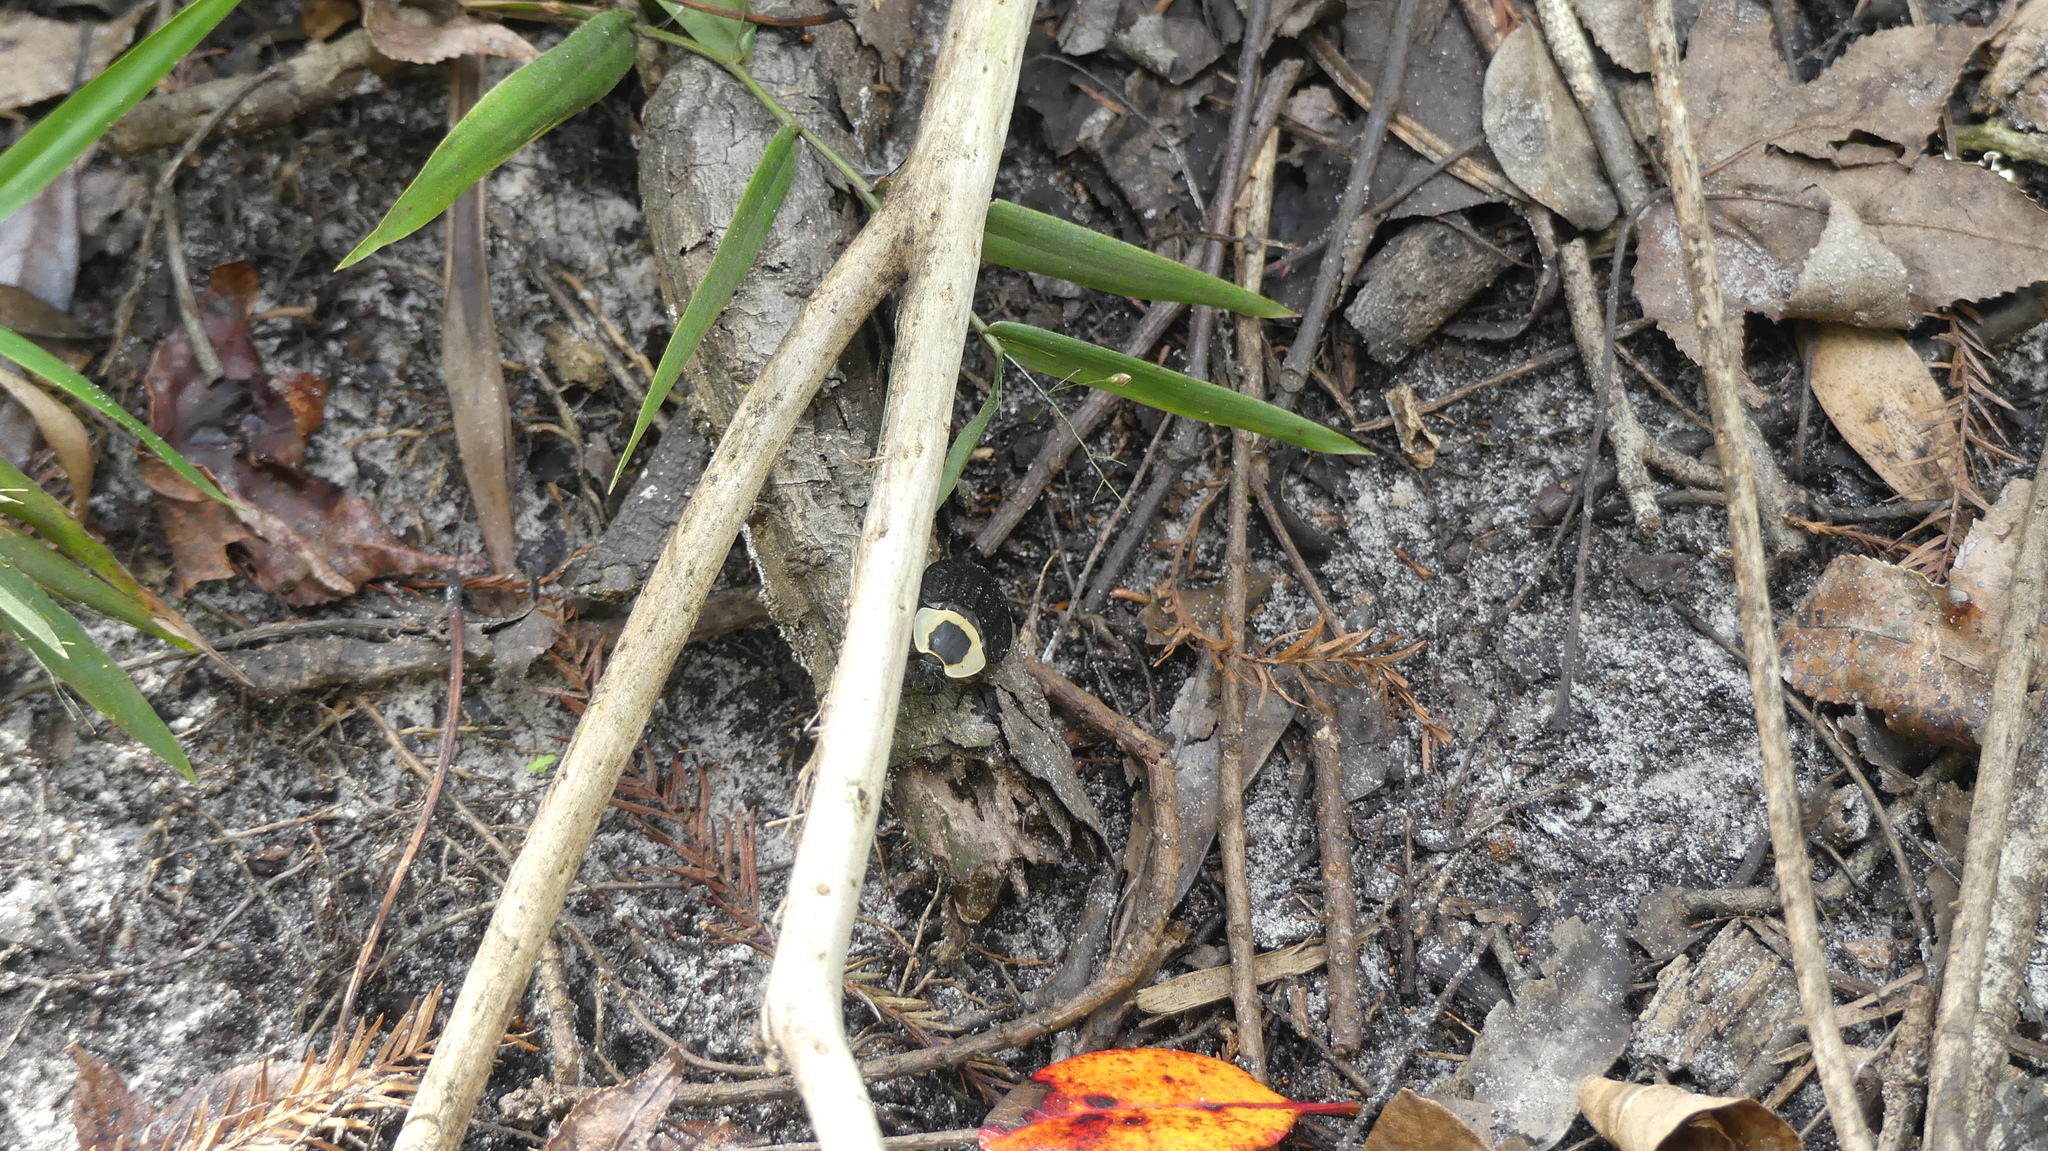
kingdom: Animalia
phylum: Arthropoda
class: Insecta
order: Coleoptera
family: Staphylinidae
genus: Necrophila
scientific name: Necrophila americana
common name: American carrion beetle
